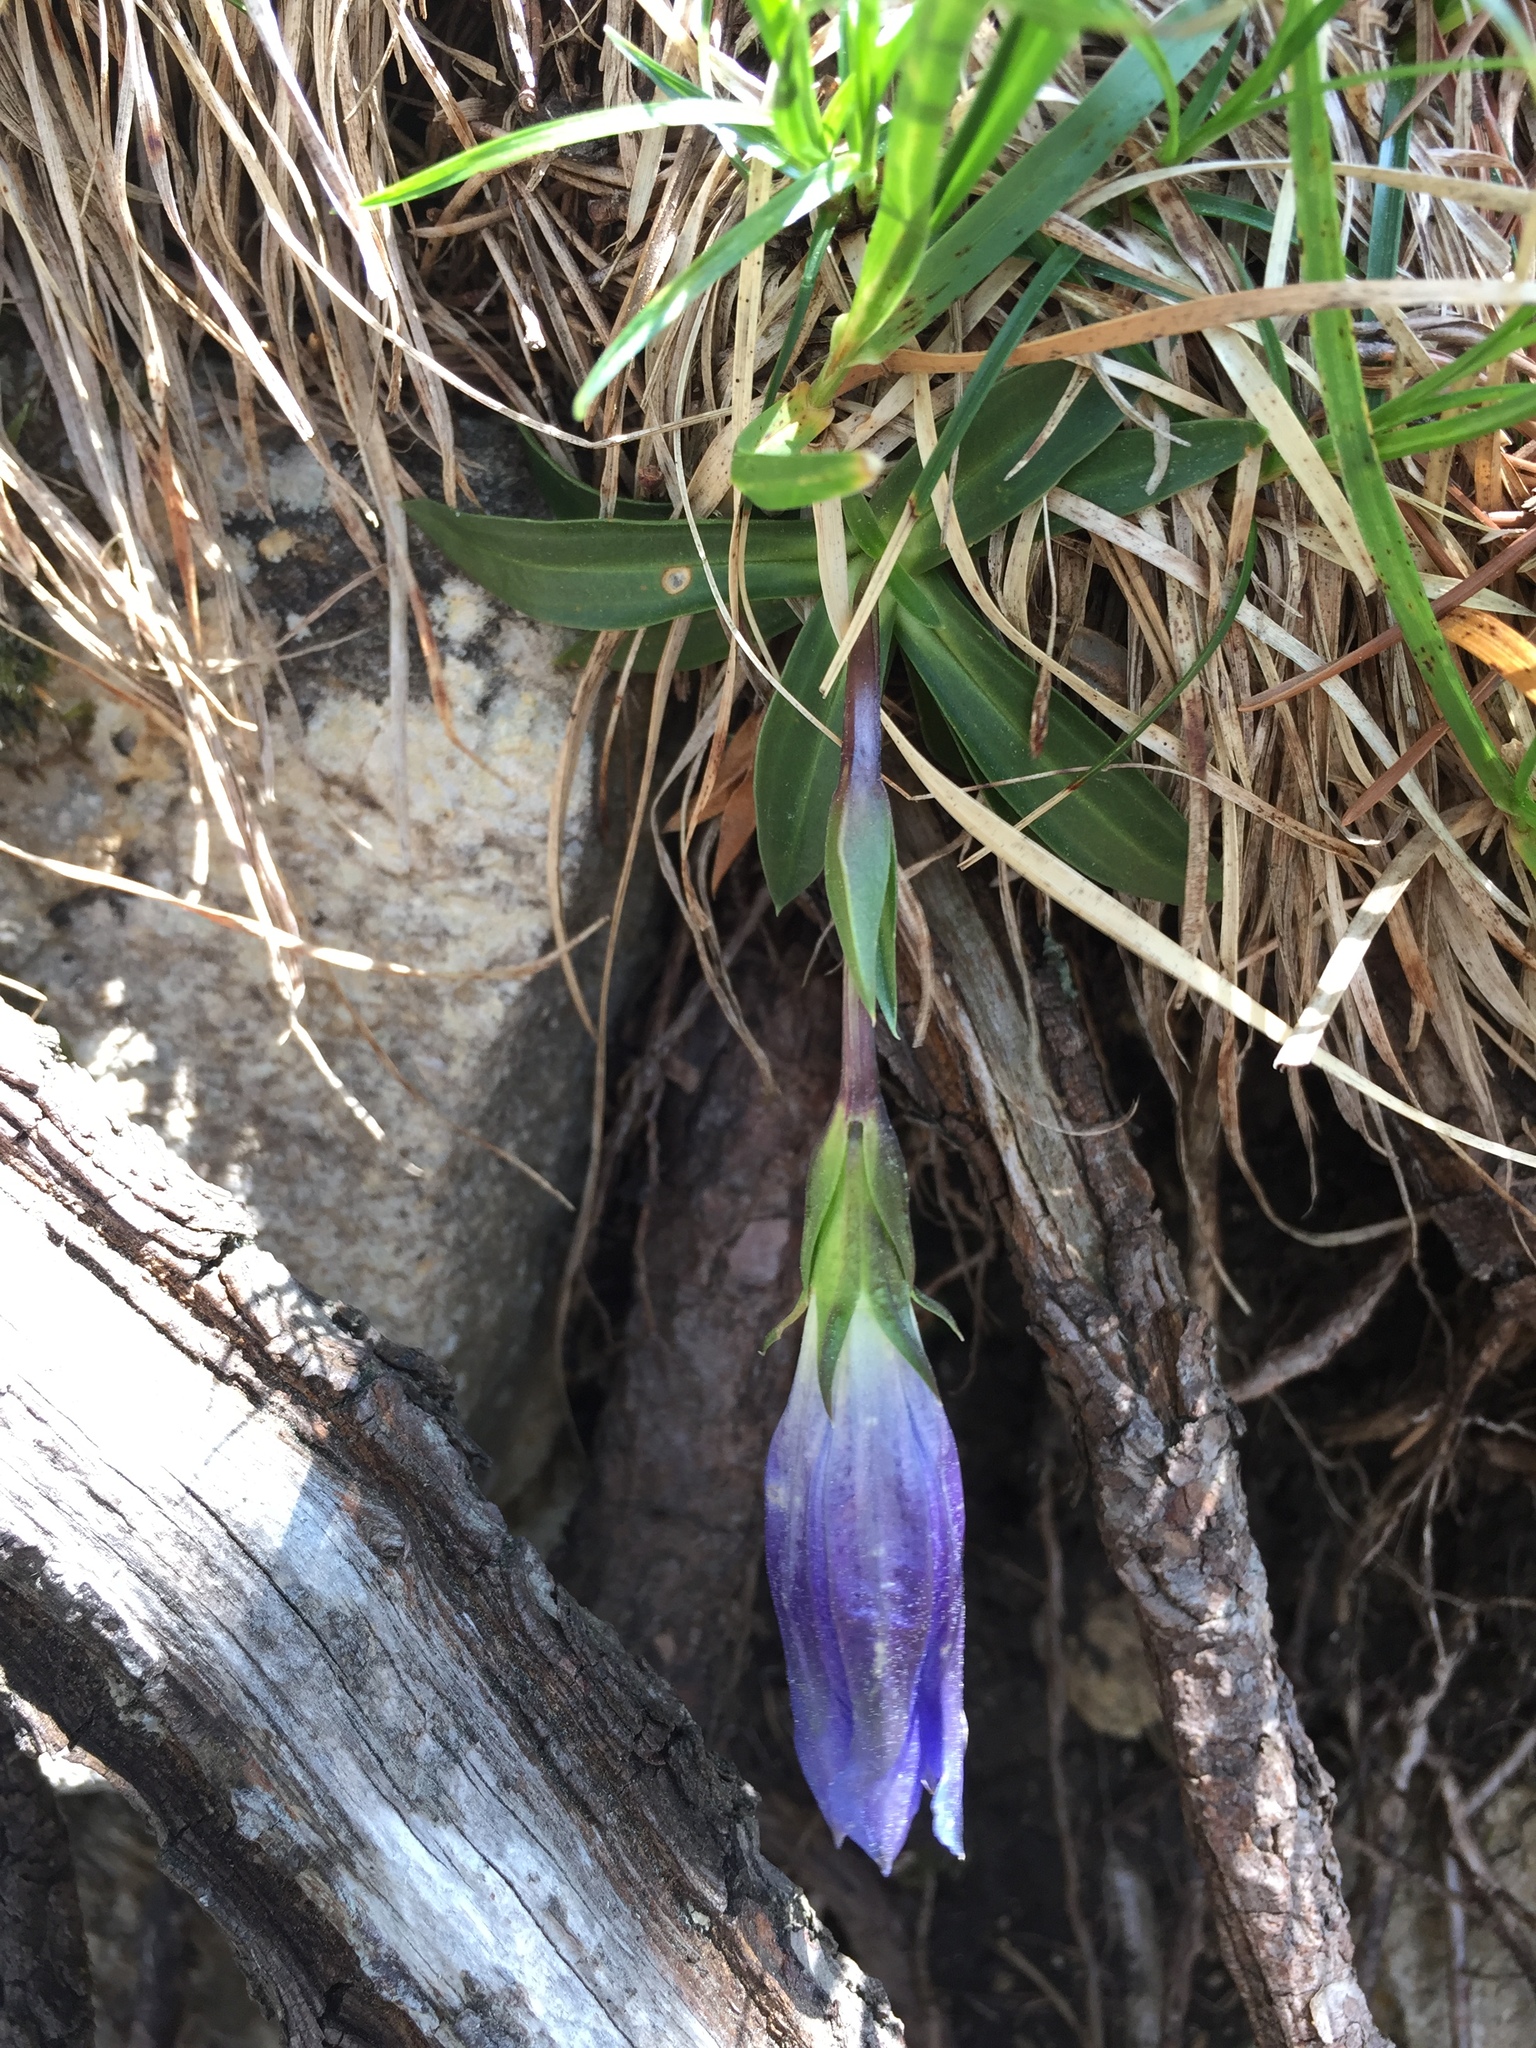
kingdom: Plantae
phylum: Tracheophyta
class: Magnoliopsida
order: Gentianales
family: Gentianaceae
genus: Gentiana
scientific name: Gentiana clusii
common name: Trumpet gentian
